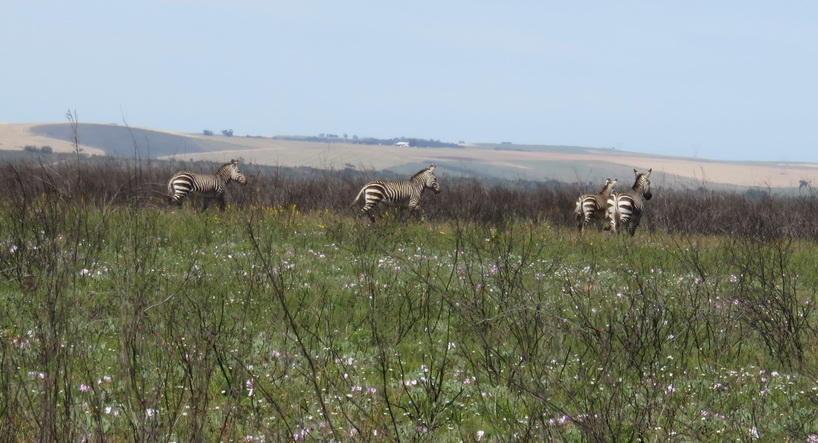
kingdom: Animalia
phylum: Chordata
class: Mammalia
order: Perissodactyla
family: Equidae
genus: Equus
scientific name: Equus zebra
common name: Mountain zebra
